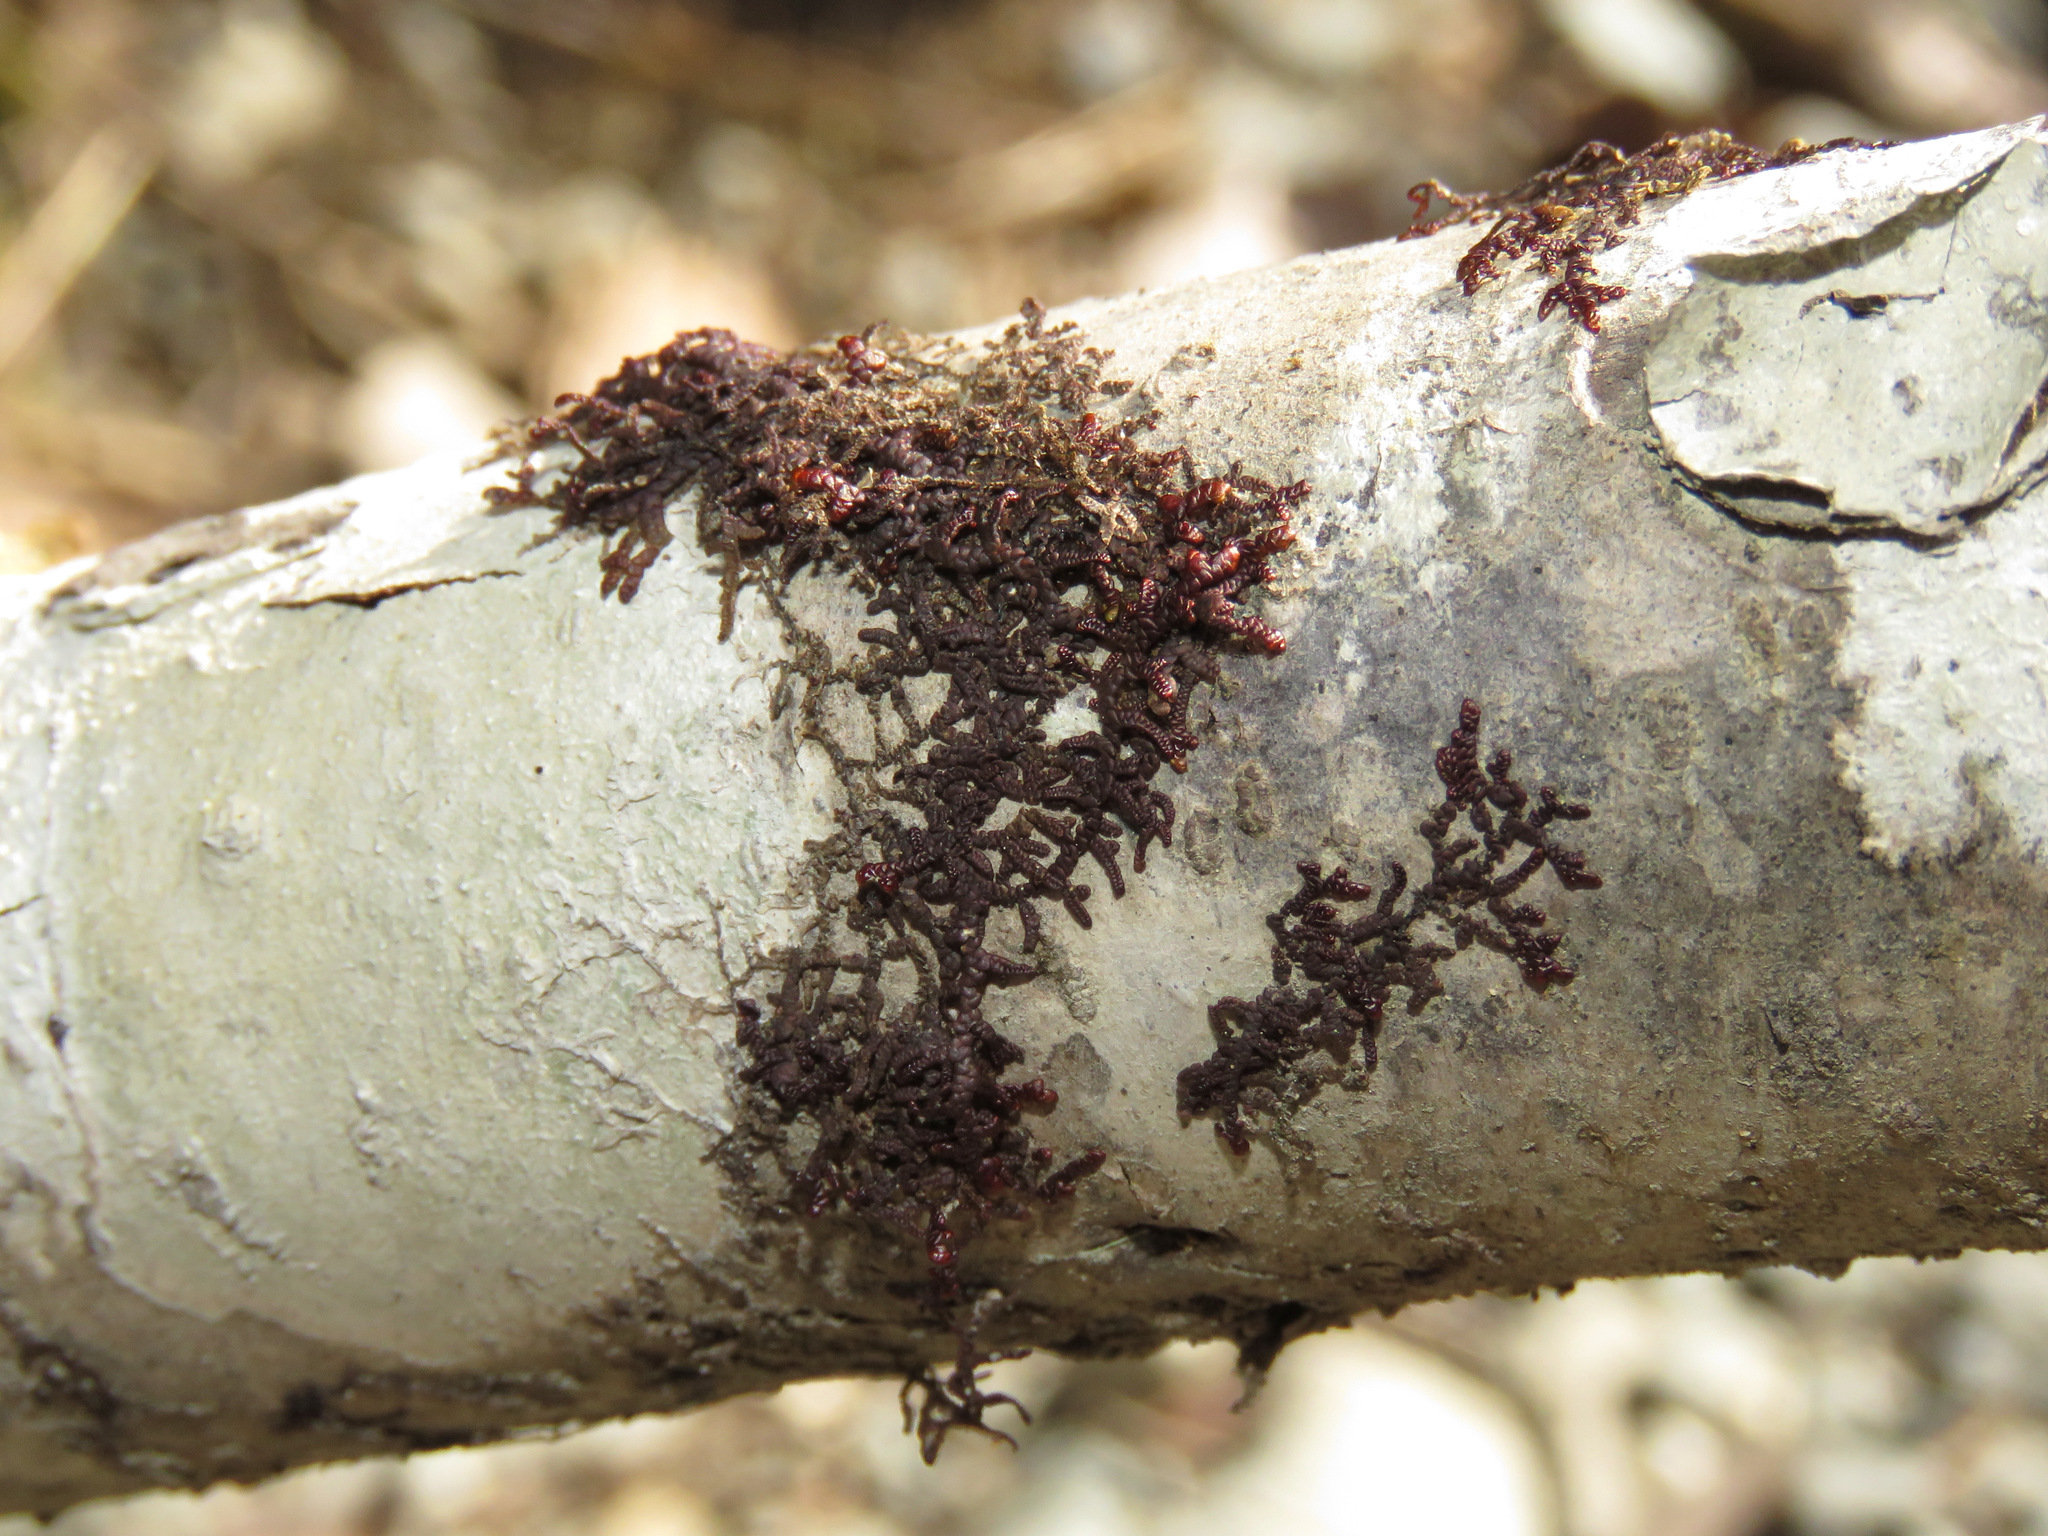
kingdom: Plantae
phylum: Marchantiophyta
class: Jungermanniopsida
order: Porellales
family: Frullaniaceae
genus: Frullania
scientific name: Frullania nisquallensis
